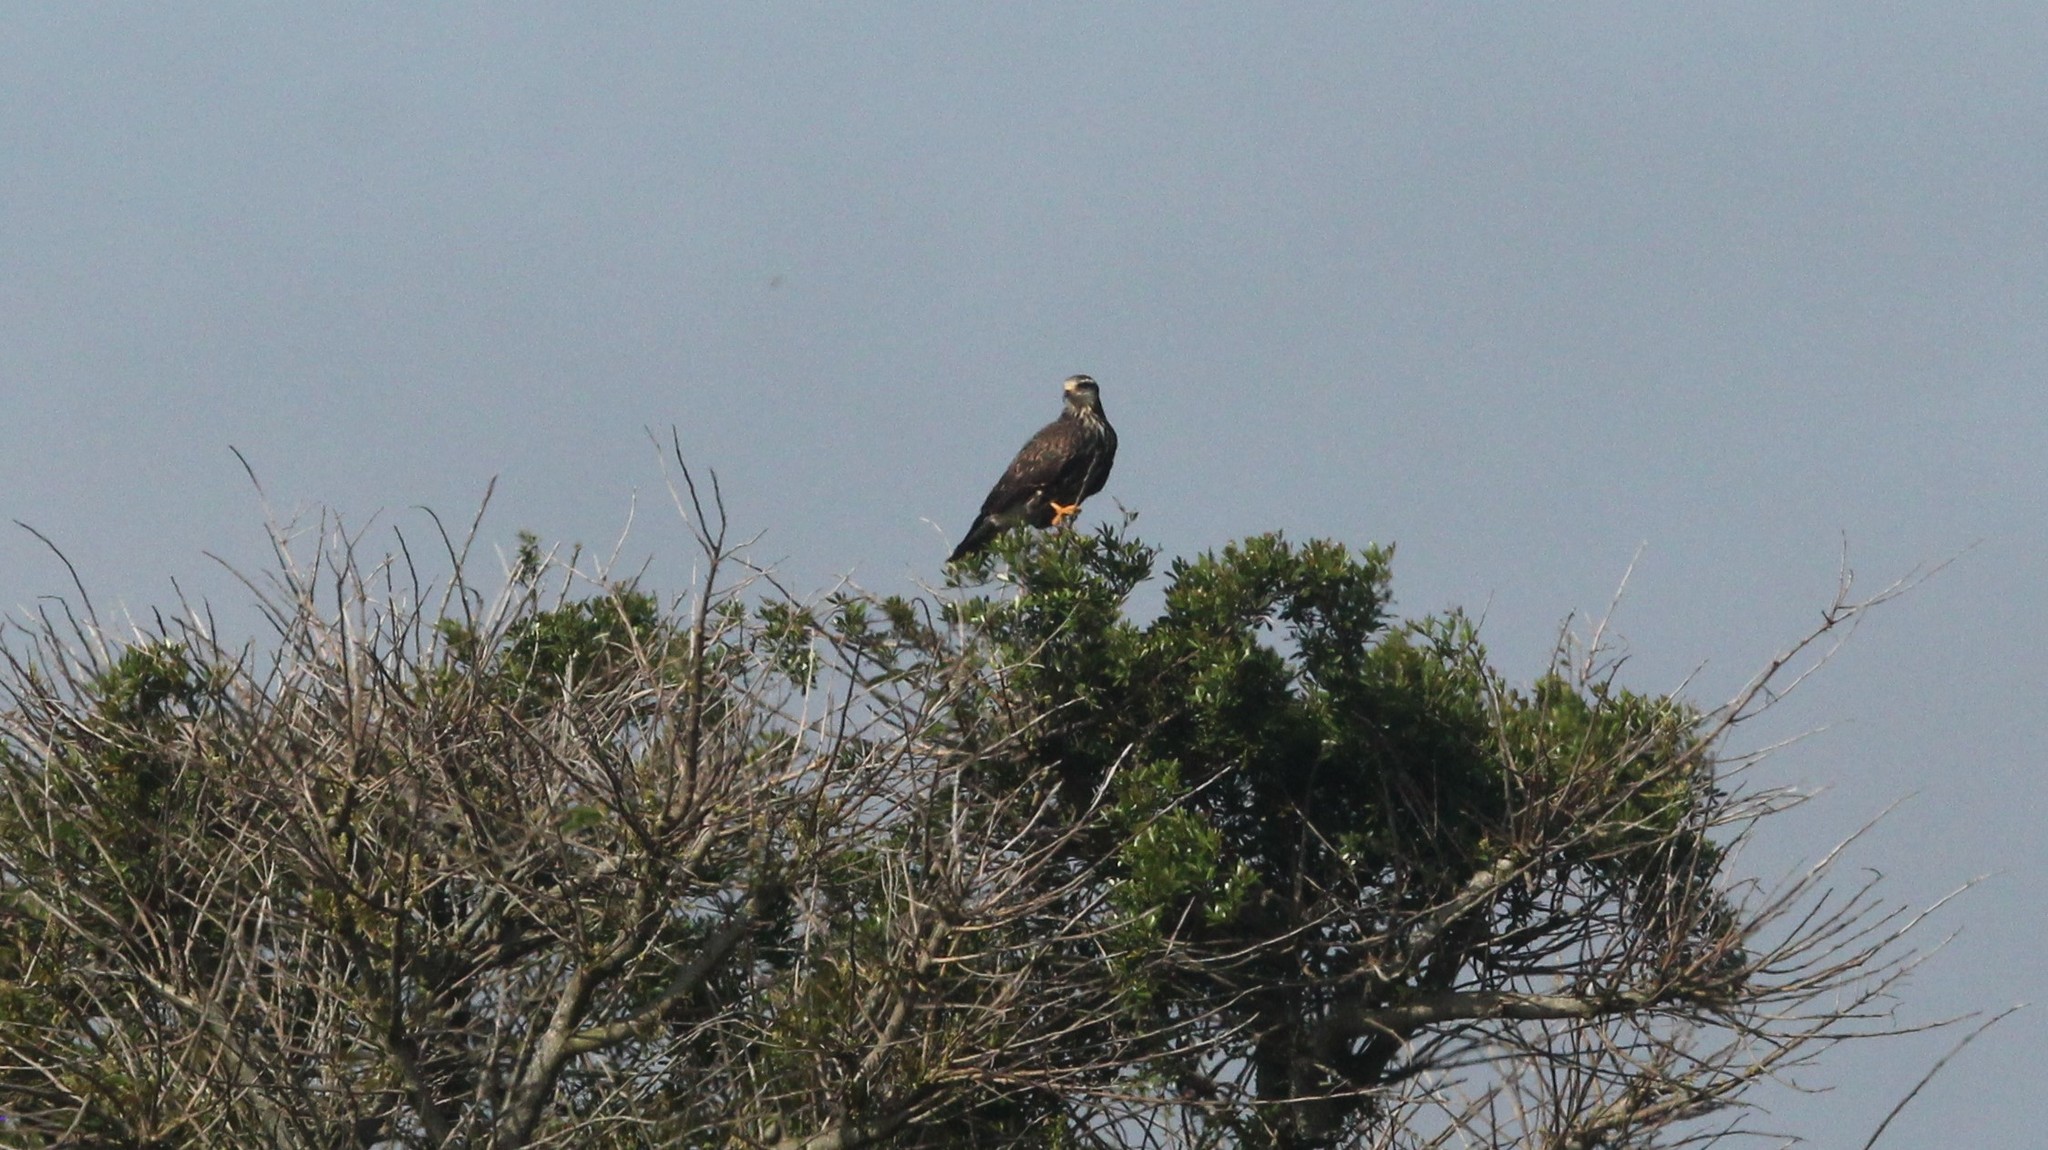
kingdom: Animalia
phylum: Chordata
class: Aves
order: Accipitriformes
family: Accipitridae
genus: Rostrhamus
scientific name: Rostrhamus sociabilis
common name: Snail kite
